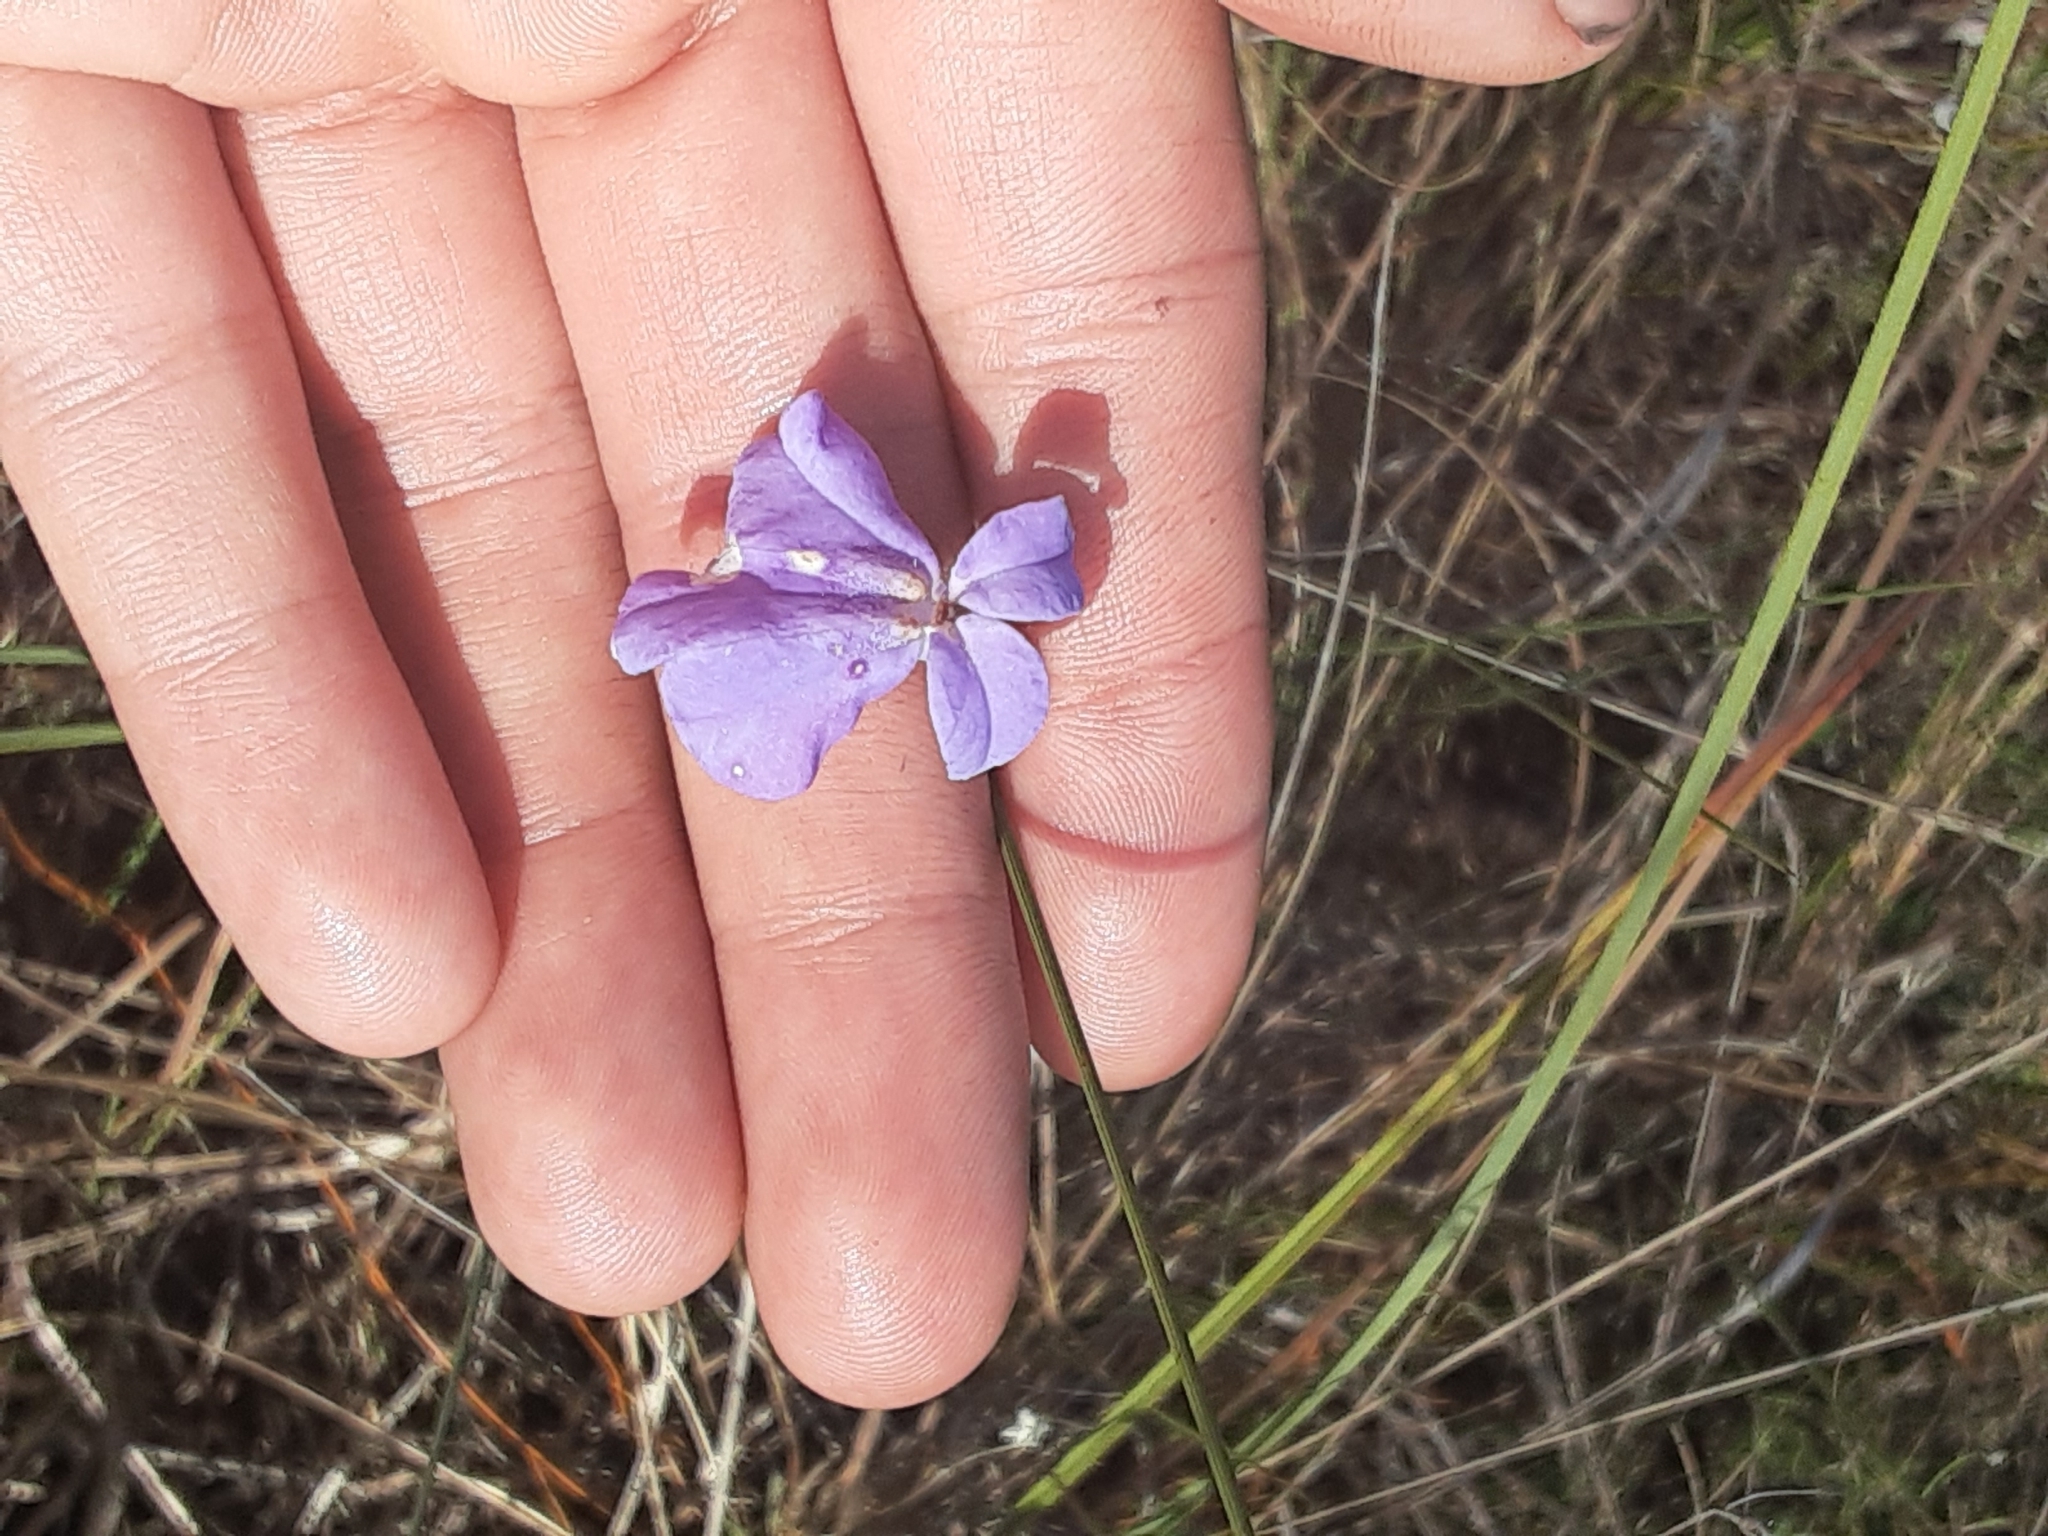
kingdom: Plantae
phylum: Tracheophyta
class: Magnoliopsida
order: Asterales
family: Campanulaceae
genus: Lobelia
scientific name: Lobelia glandulosa
